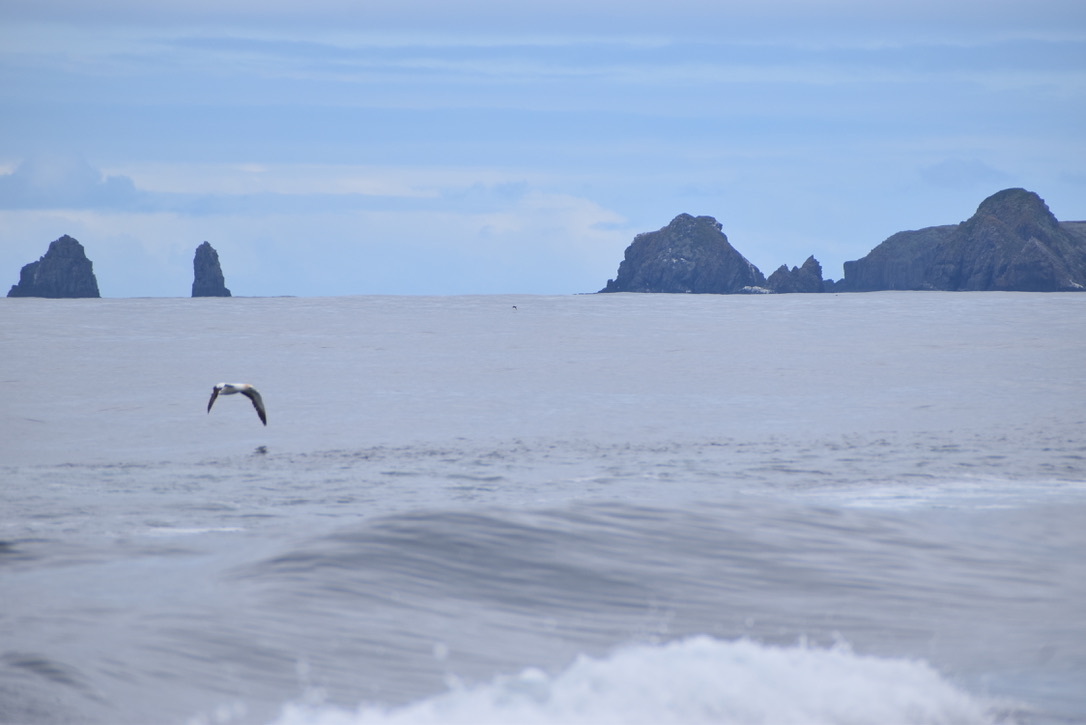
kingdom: Animalia
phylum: Chordata
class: Aves
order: Suliformes
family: Sulidae
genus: Morus
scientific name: Morus serrator
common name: Australasian gannet
